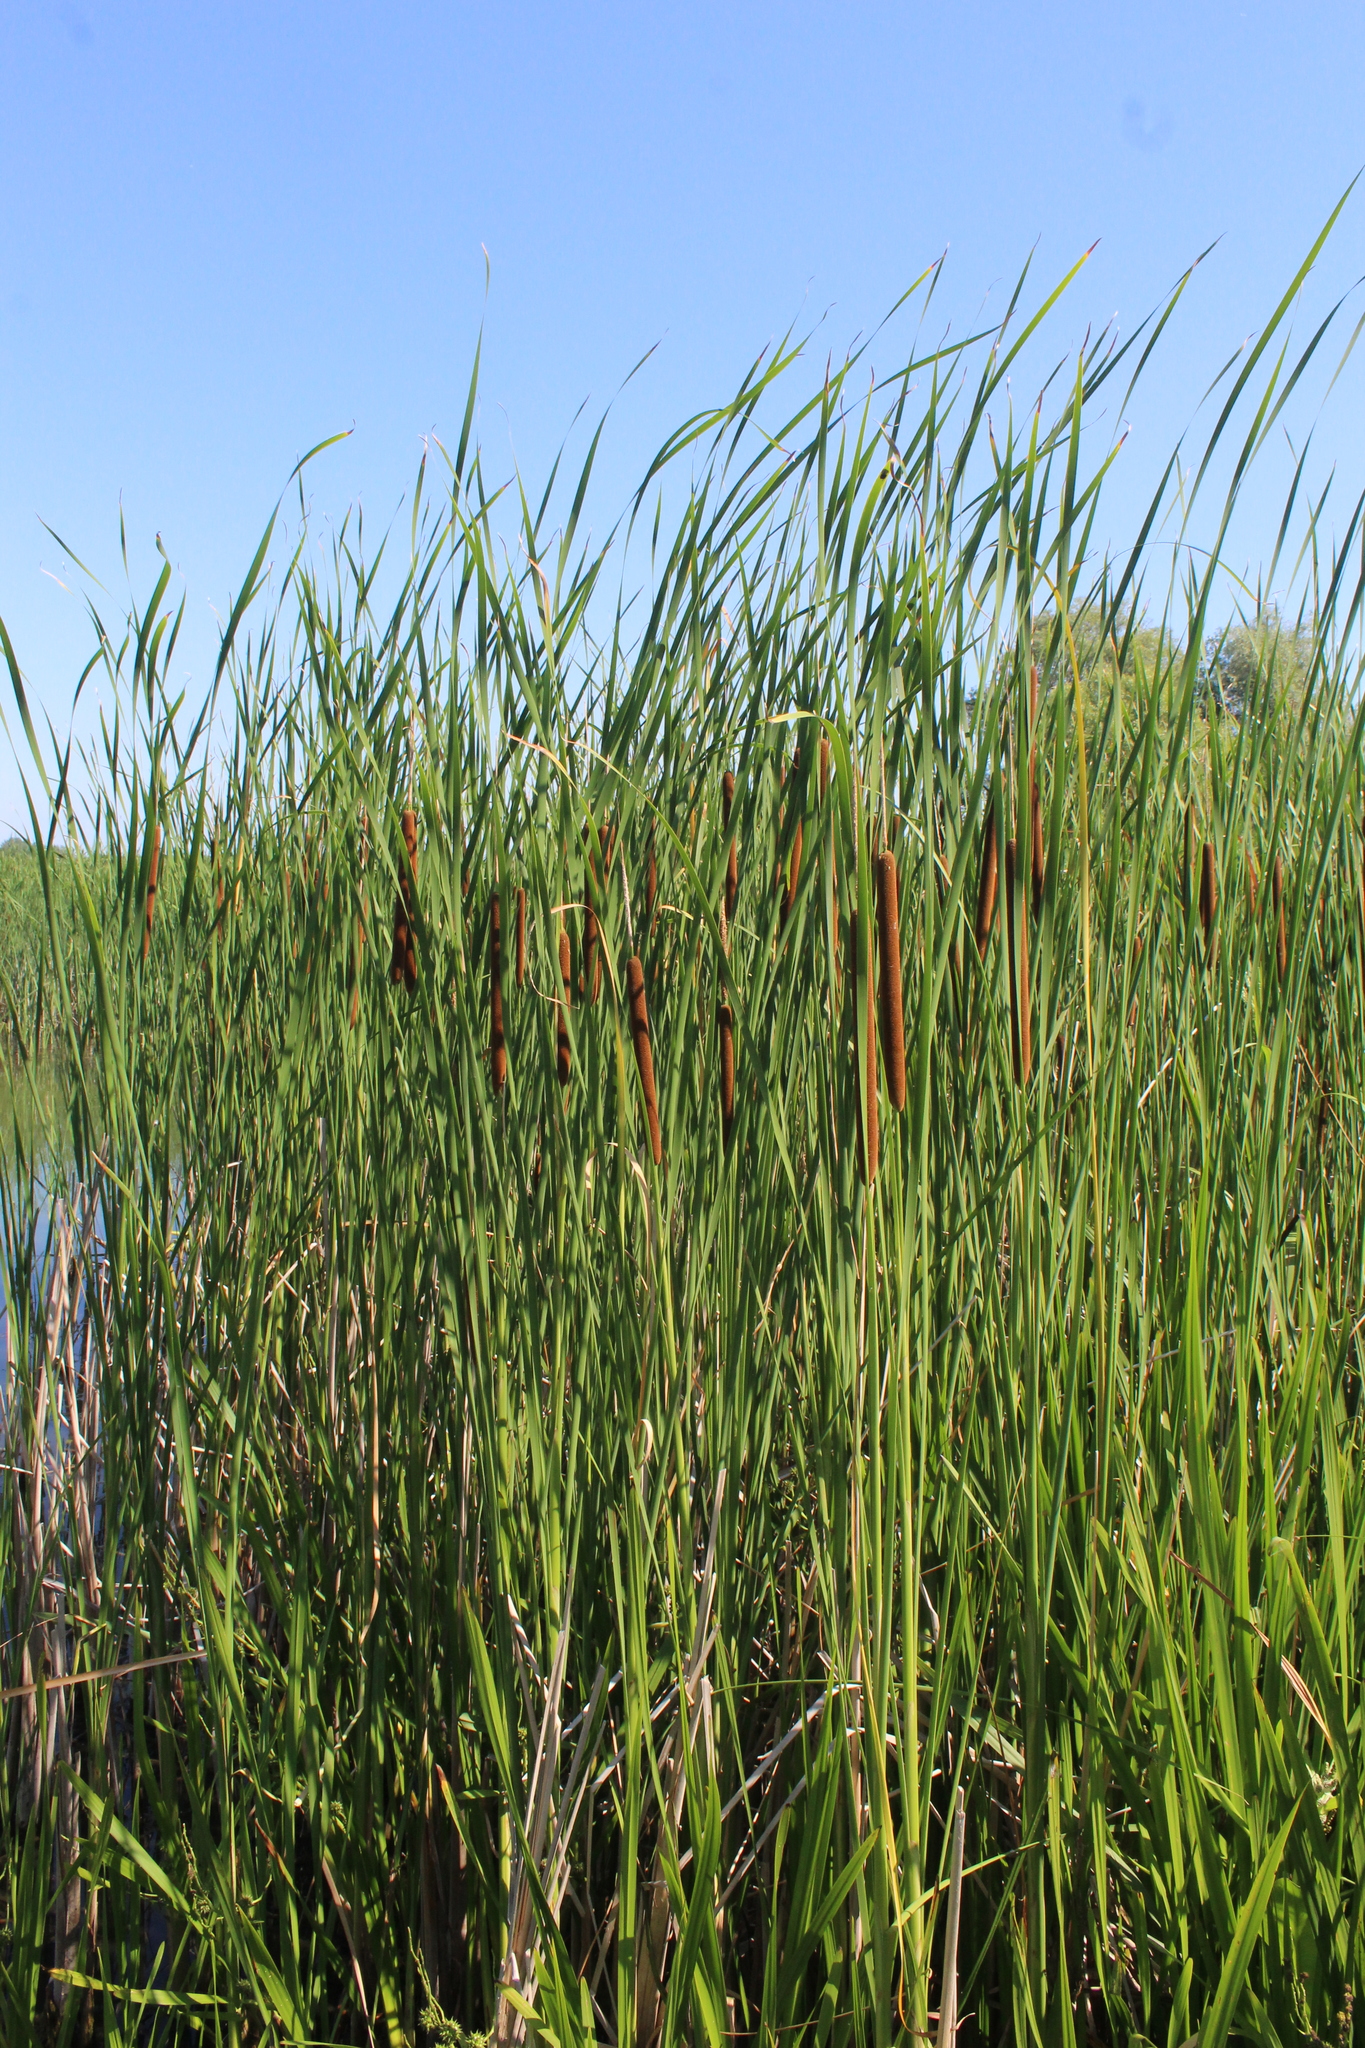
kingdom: Plantae
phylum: Tracheophyta
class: Liliopsida
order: Poales
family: Typhaceae
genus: Typha
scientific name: Typha angustifolia
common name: Lesser bulrush
